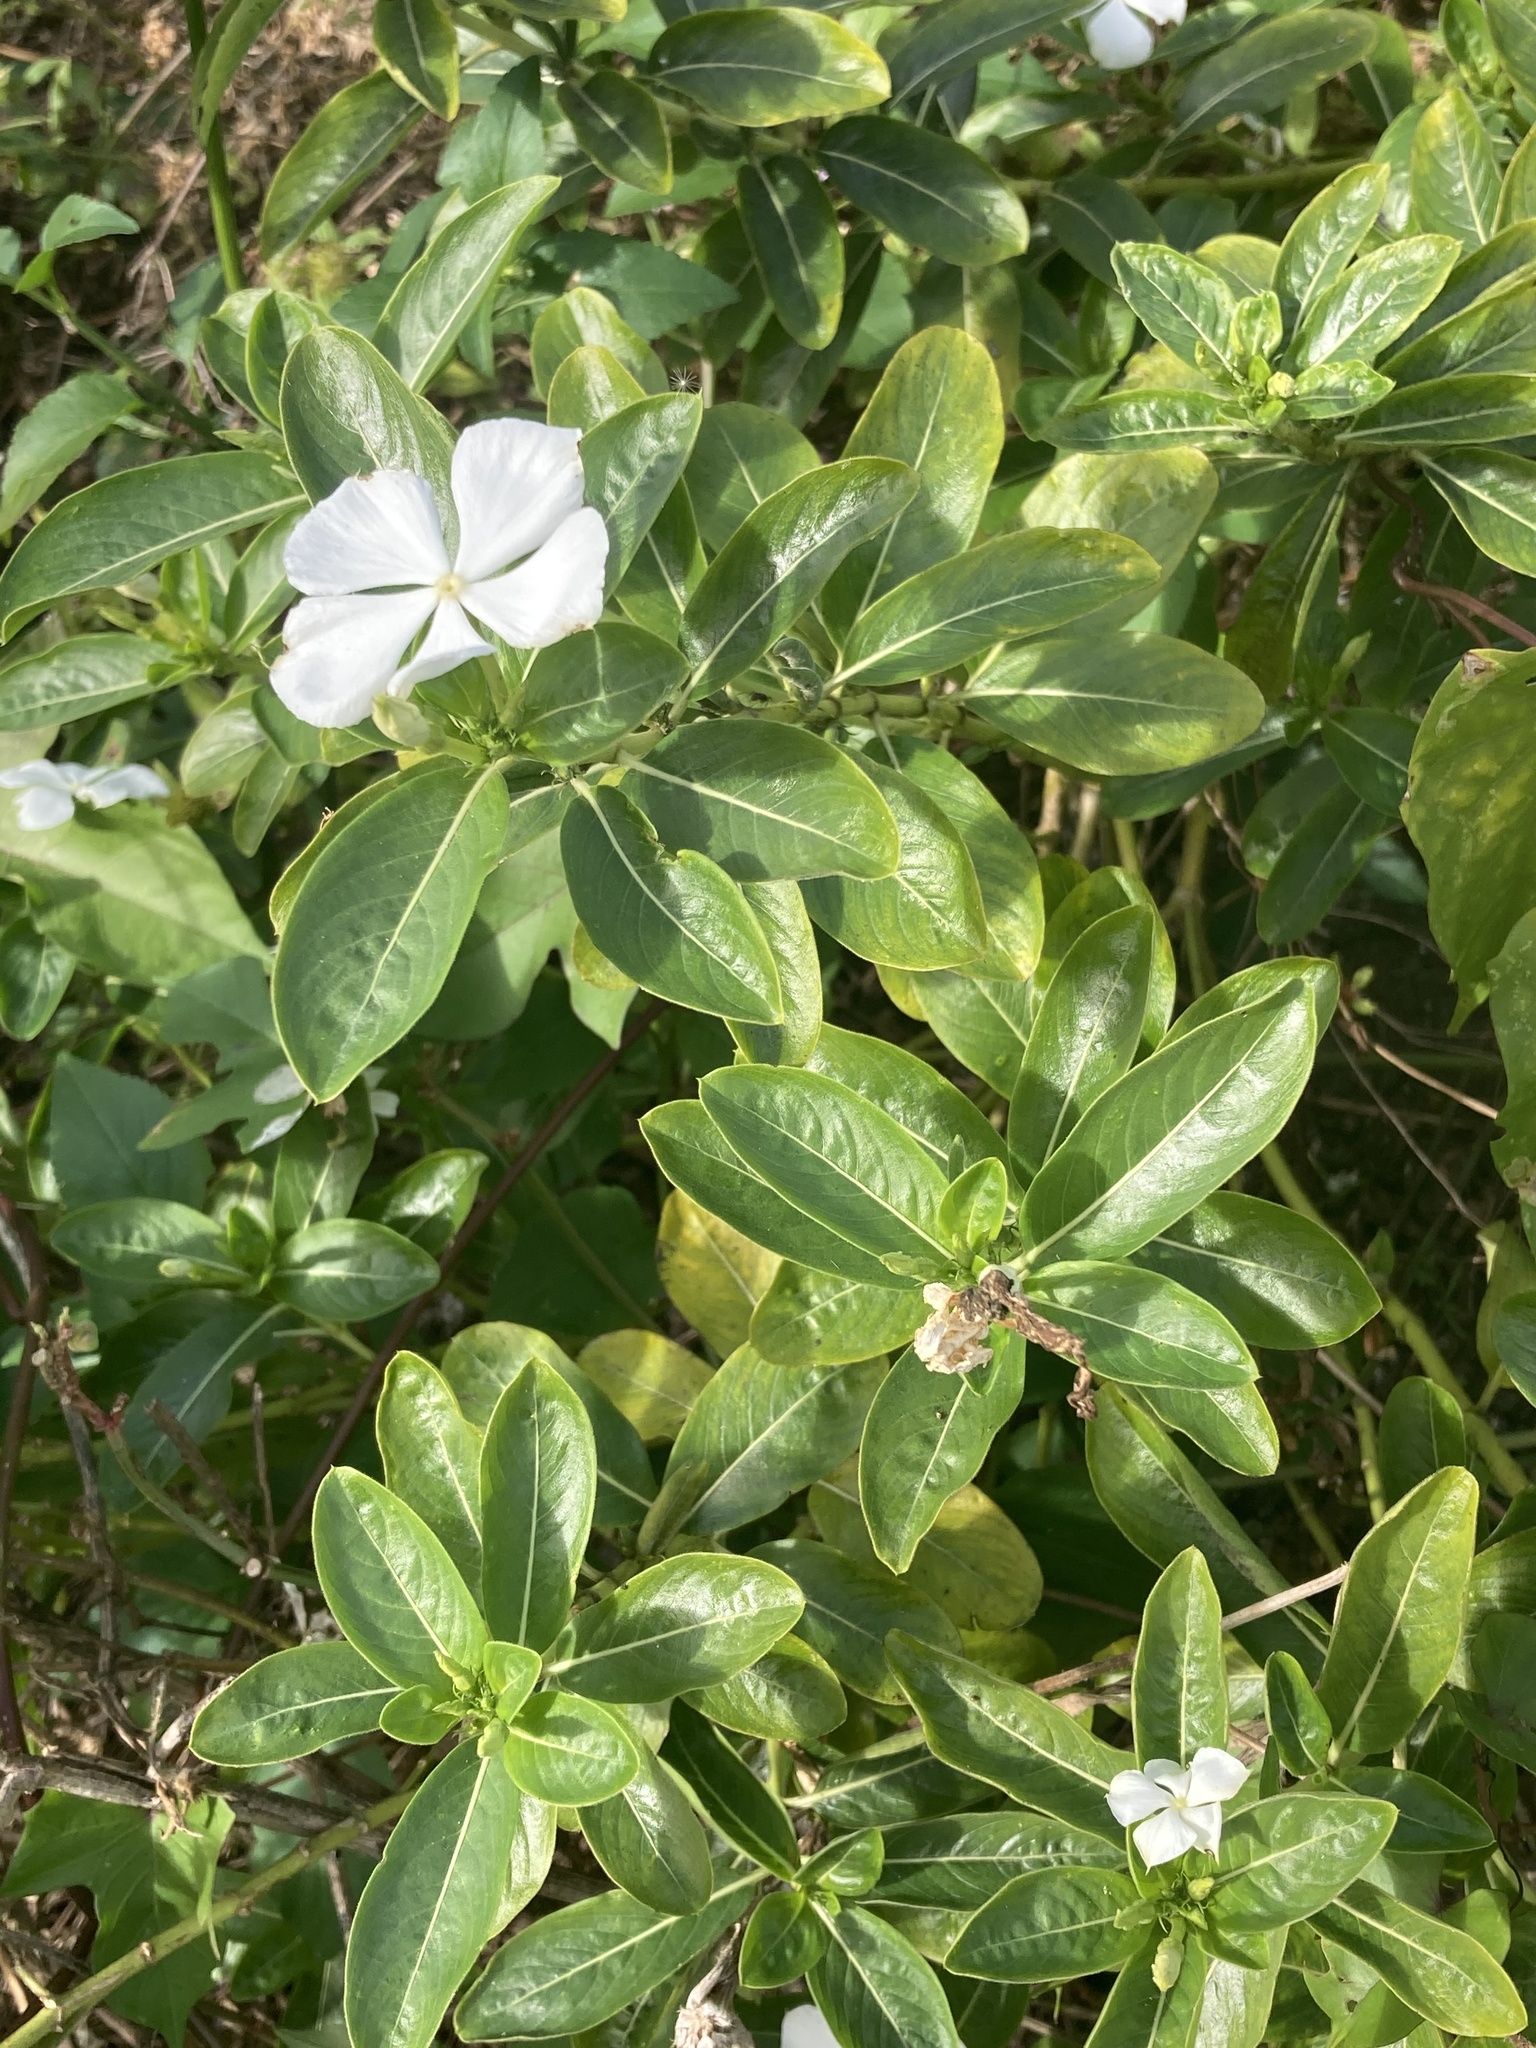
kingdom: Plantae
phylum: Tracheophyta
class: Magnoliopsida
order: Gentianales
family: Apocynaceae
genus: Catharanthus
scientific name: Catharanthus roseus
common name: Madagascar periwinkle
